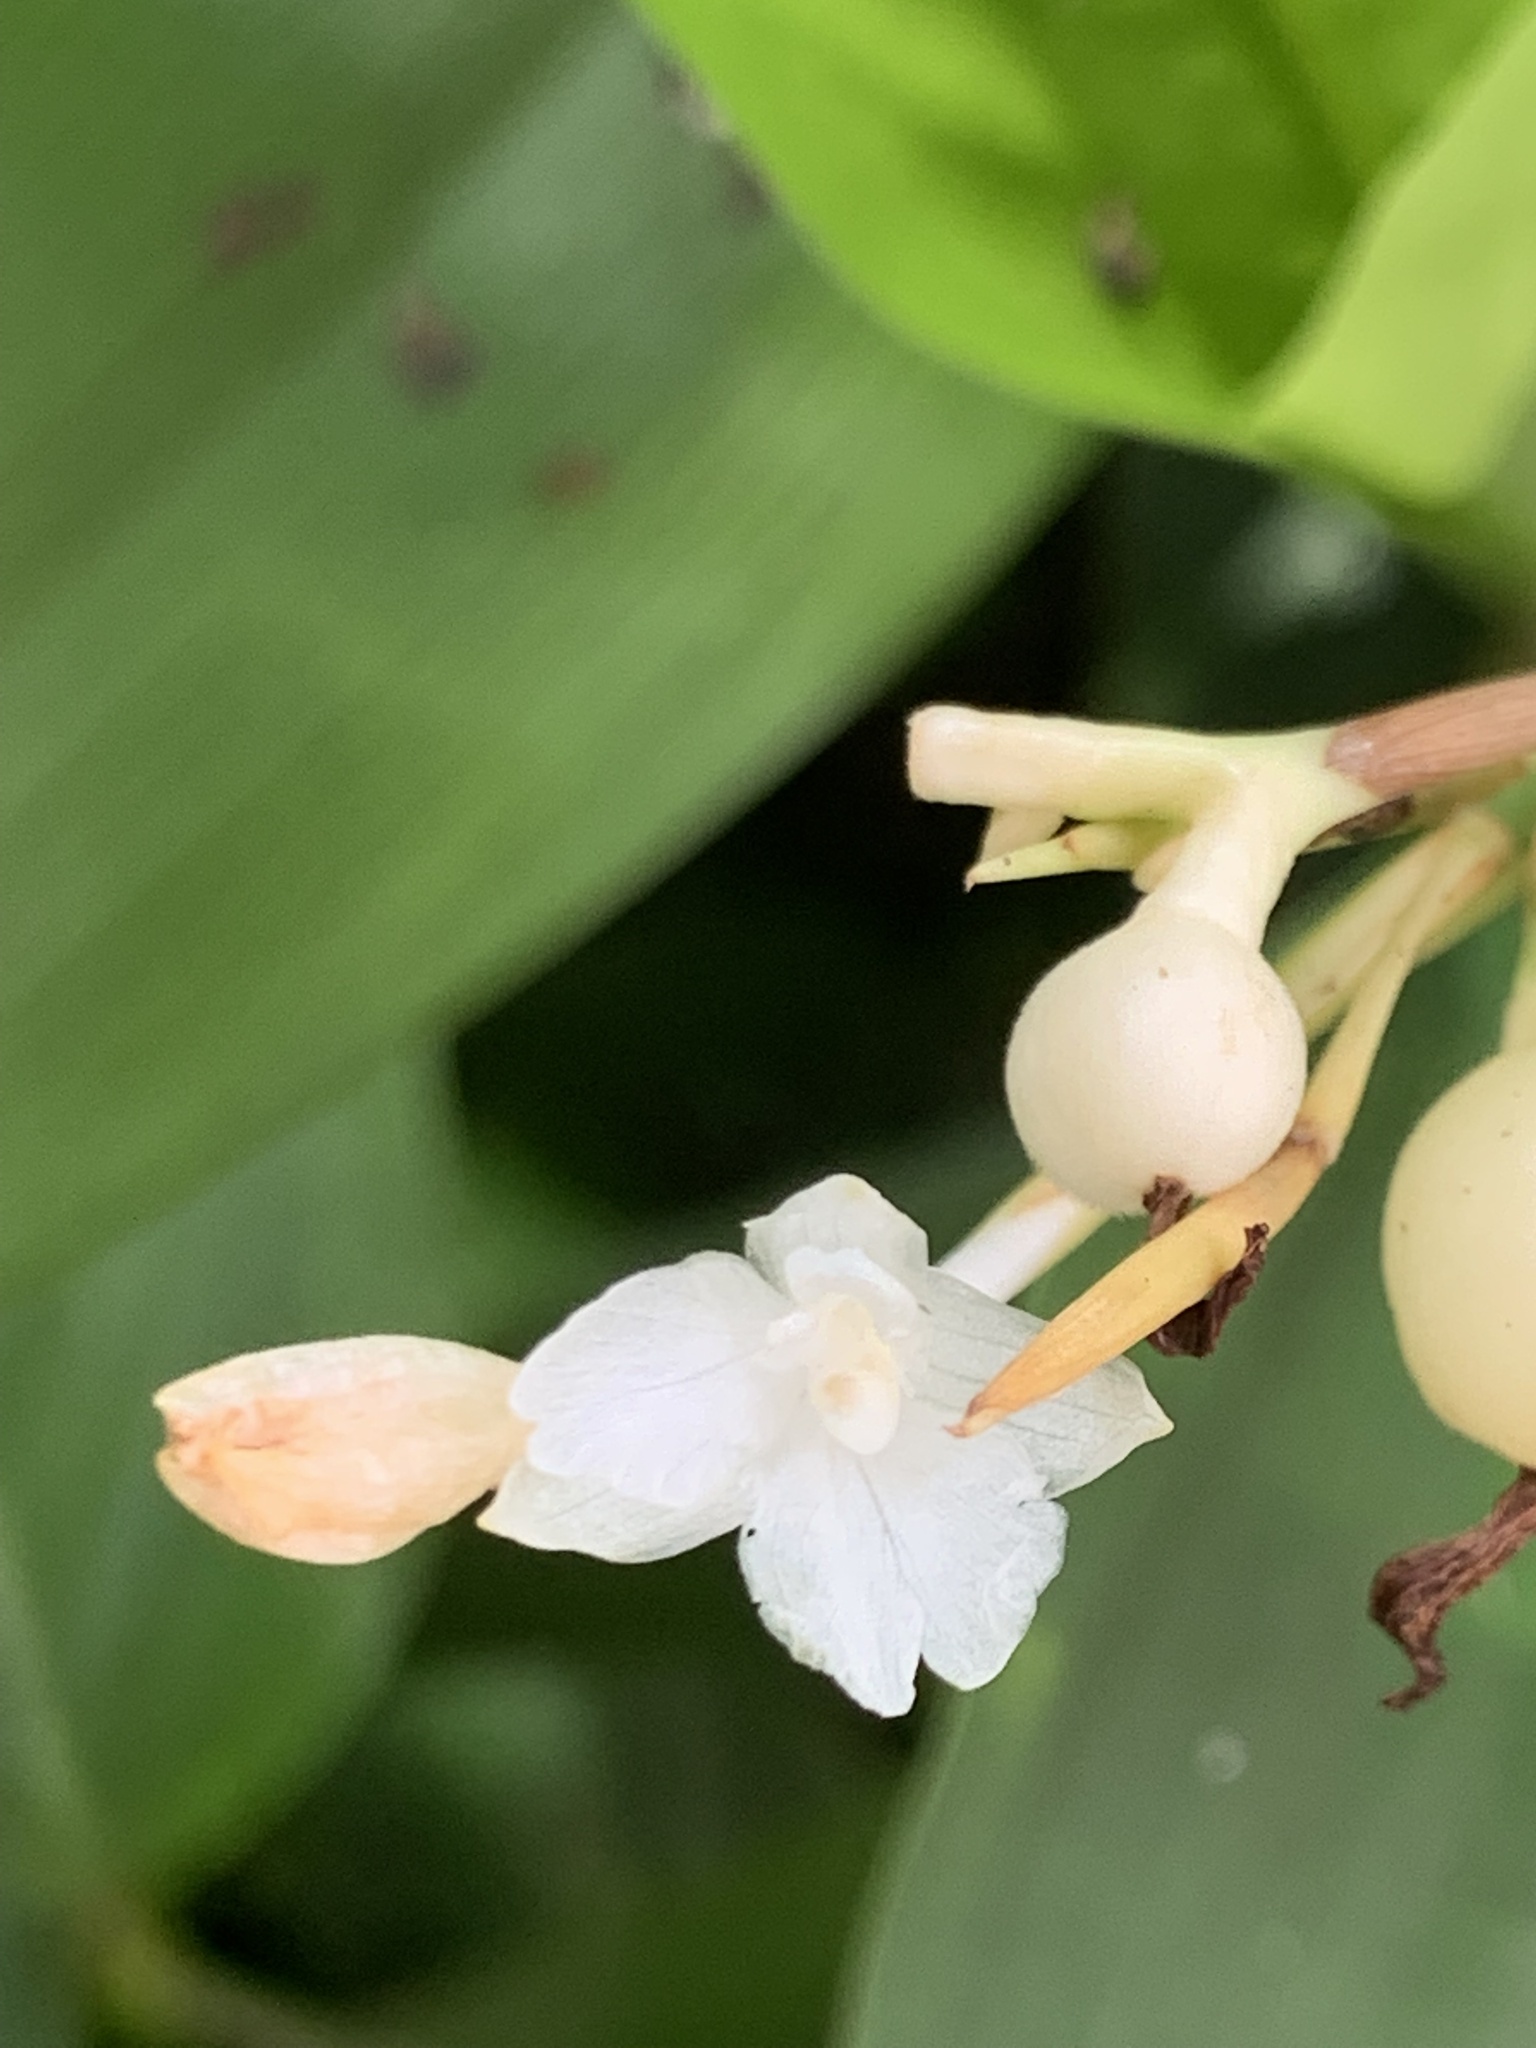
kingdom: Plantae
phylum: Tracheophyta
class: Liliopsida
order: Zingiberales
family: Marantaceae
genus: Donax
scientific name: Donax canniformis
